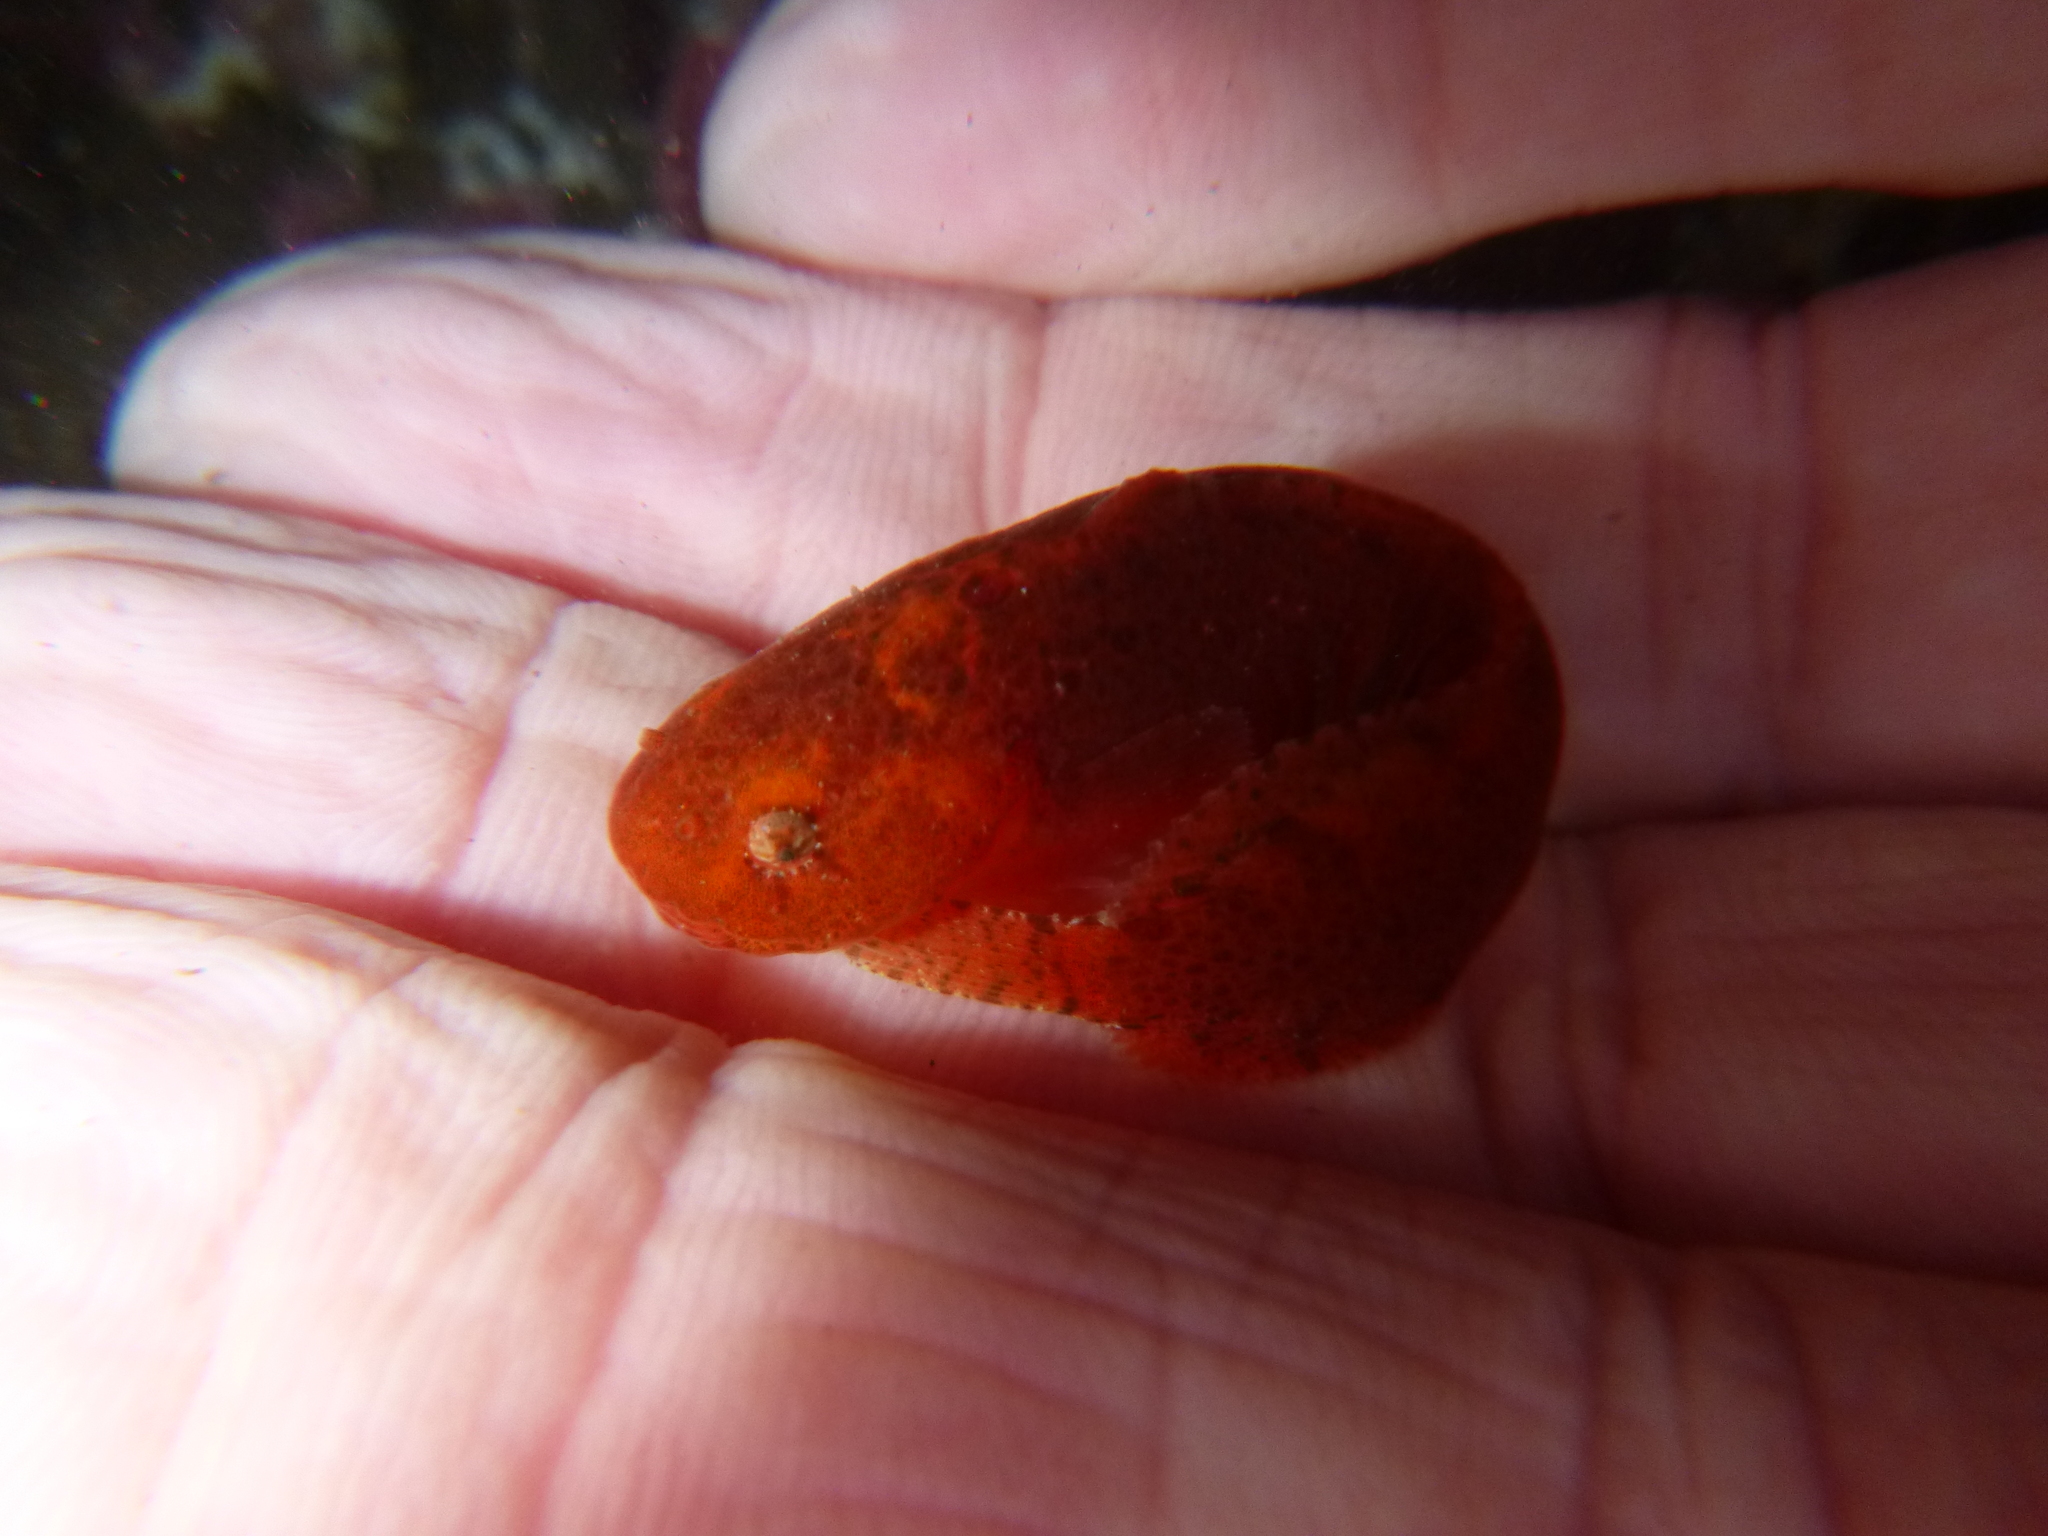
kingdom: Animalia
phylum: Chordata
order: Scorpaeniformes
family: Liparidae
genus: Liparis
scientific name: Liparis florae
